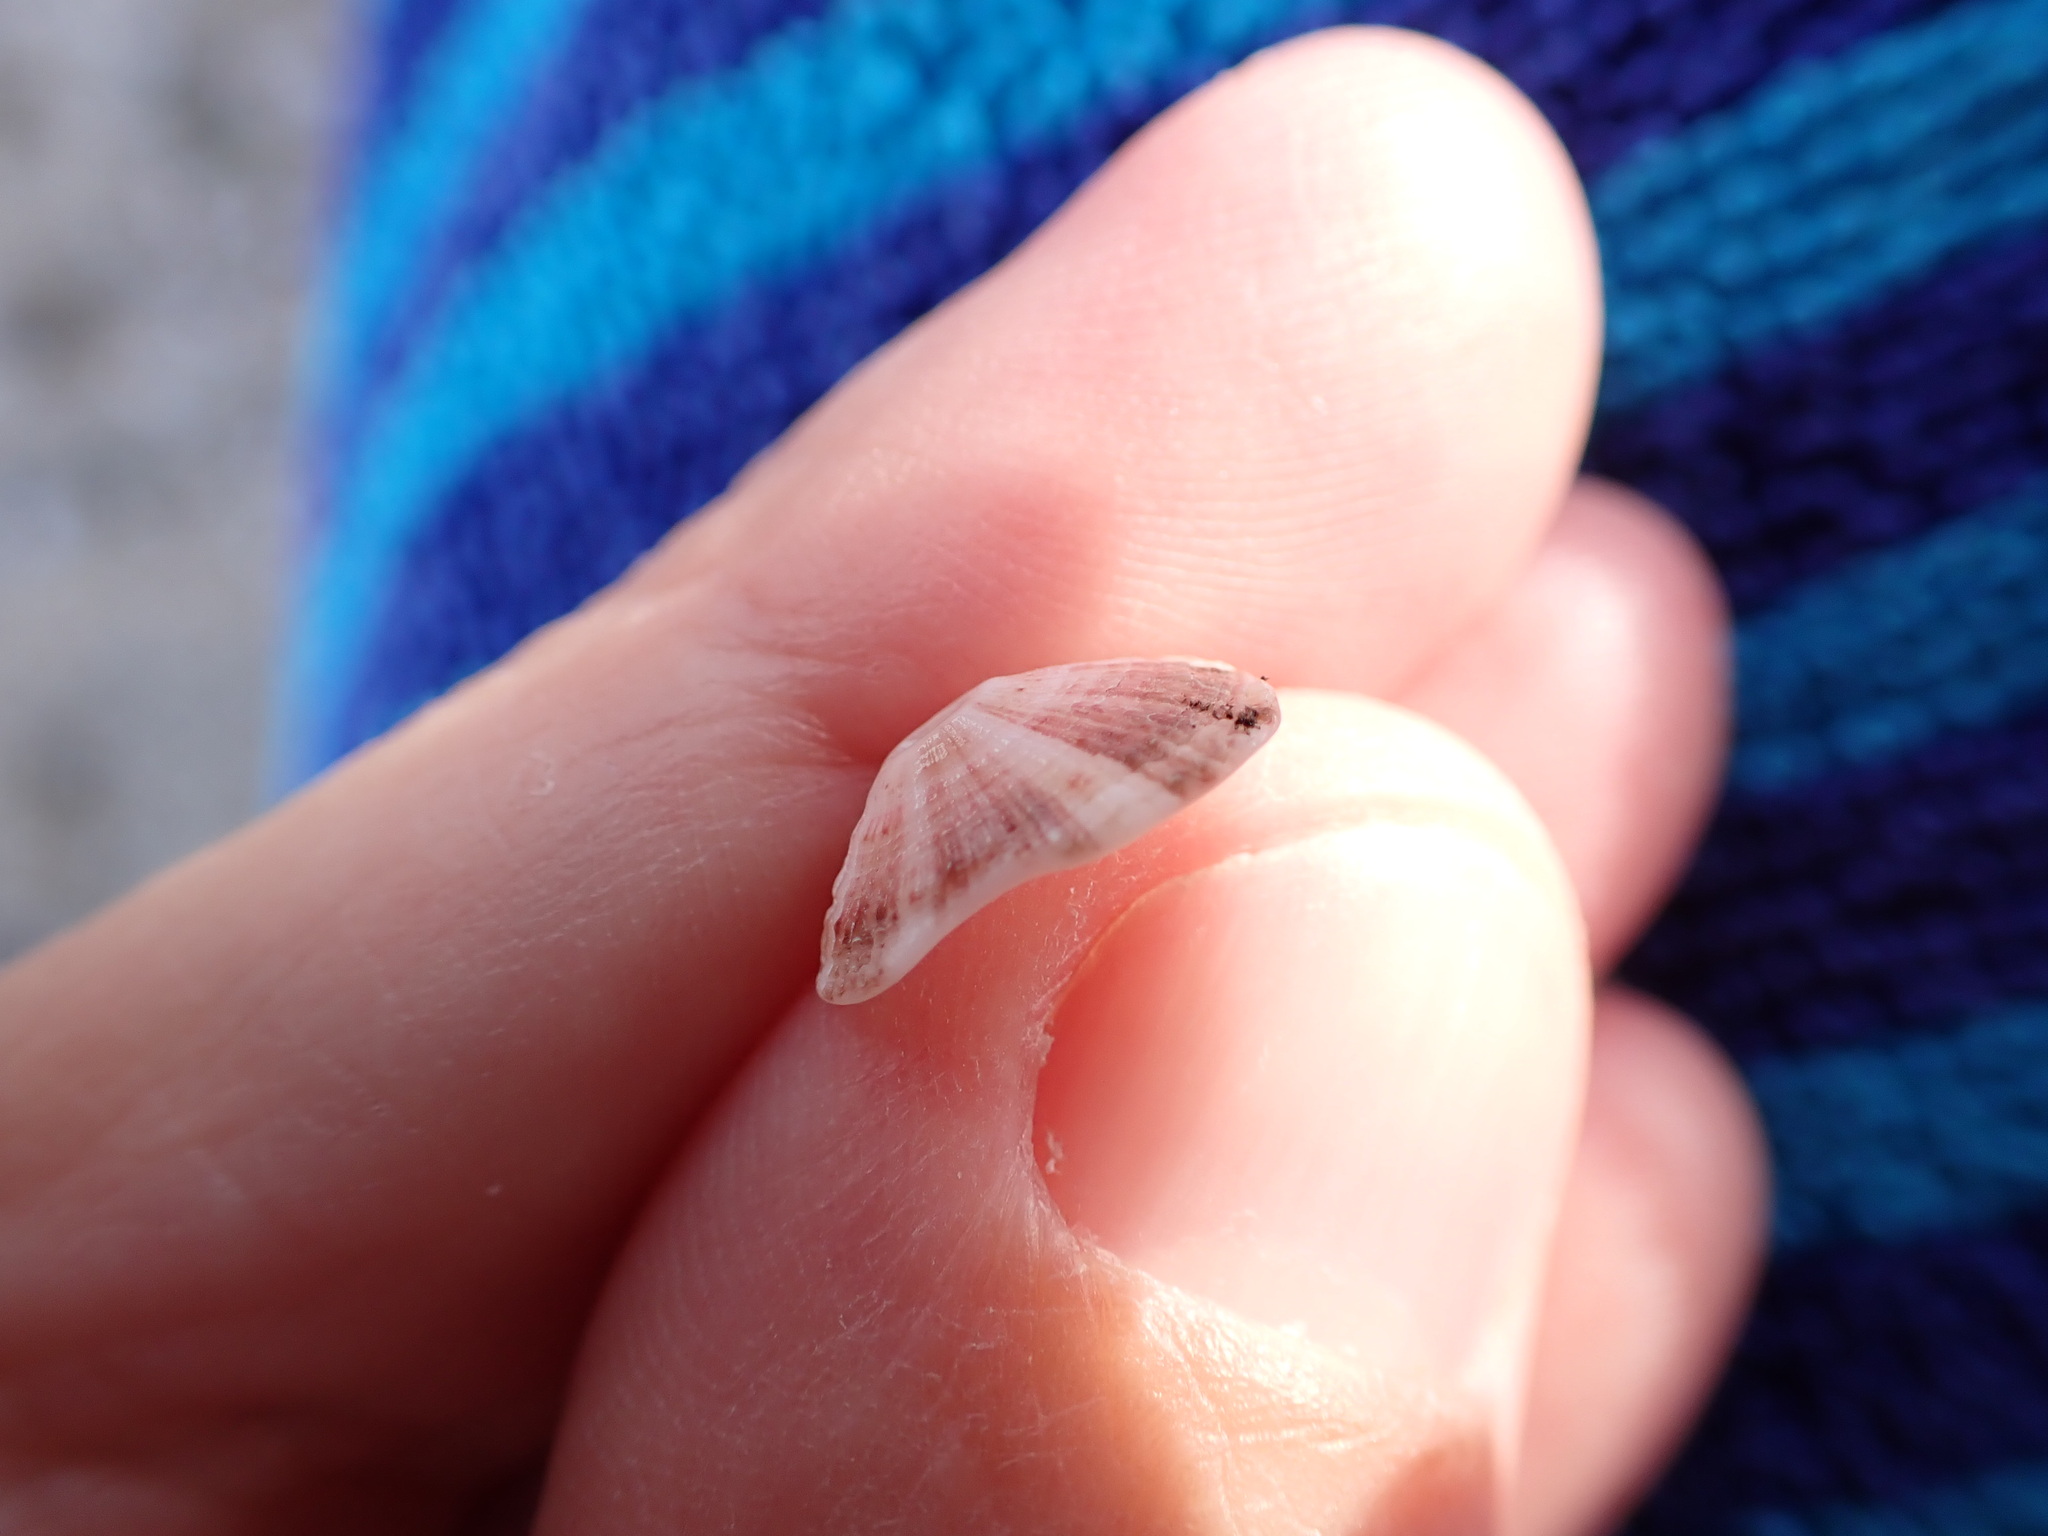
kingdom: Animalia
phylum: Mollusca
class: Gastropoda
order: Lepetellida
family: Fissurellidae
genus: Fissurella
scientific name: Fissurella nubecula
